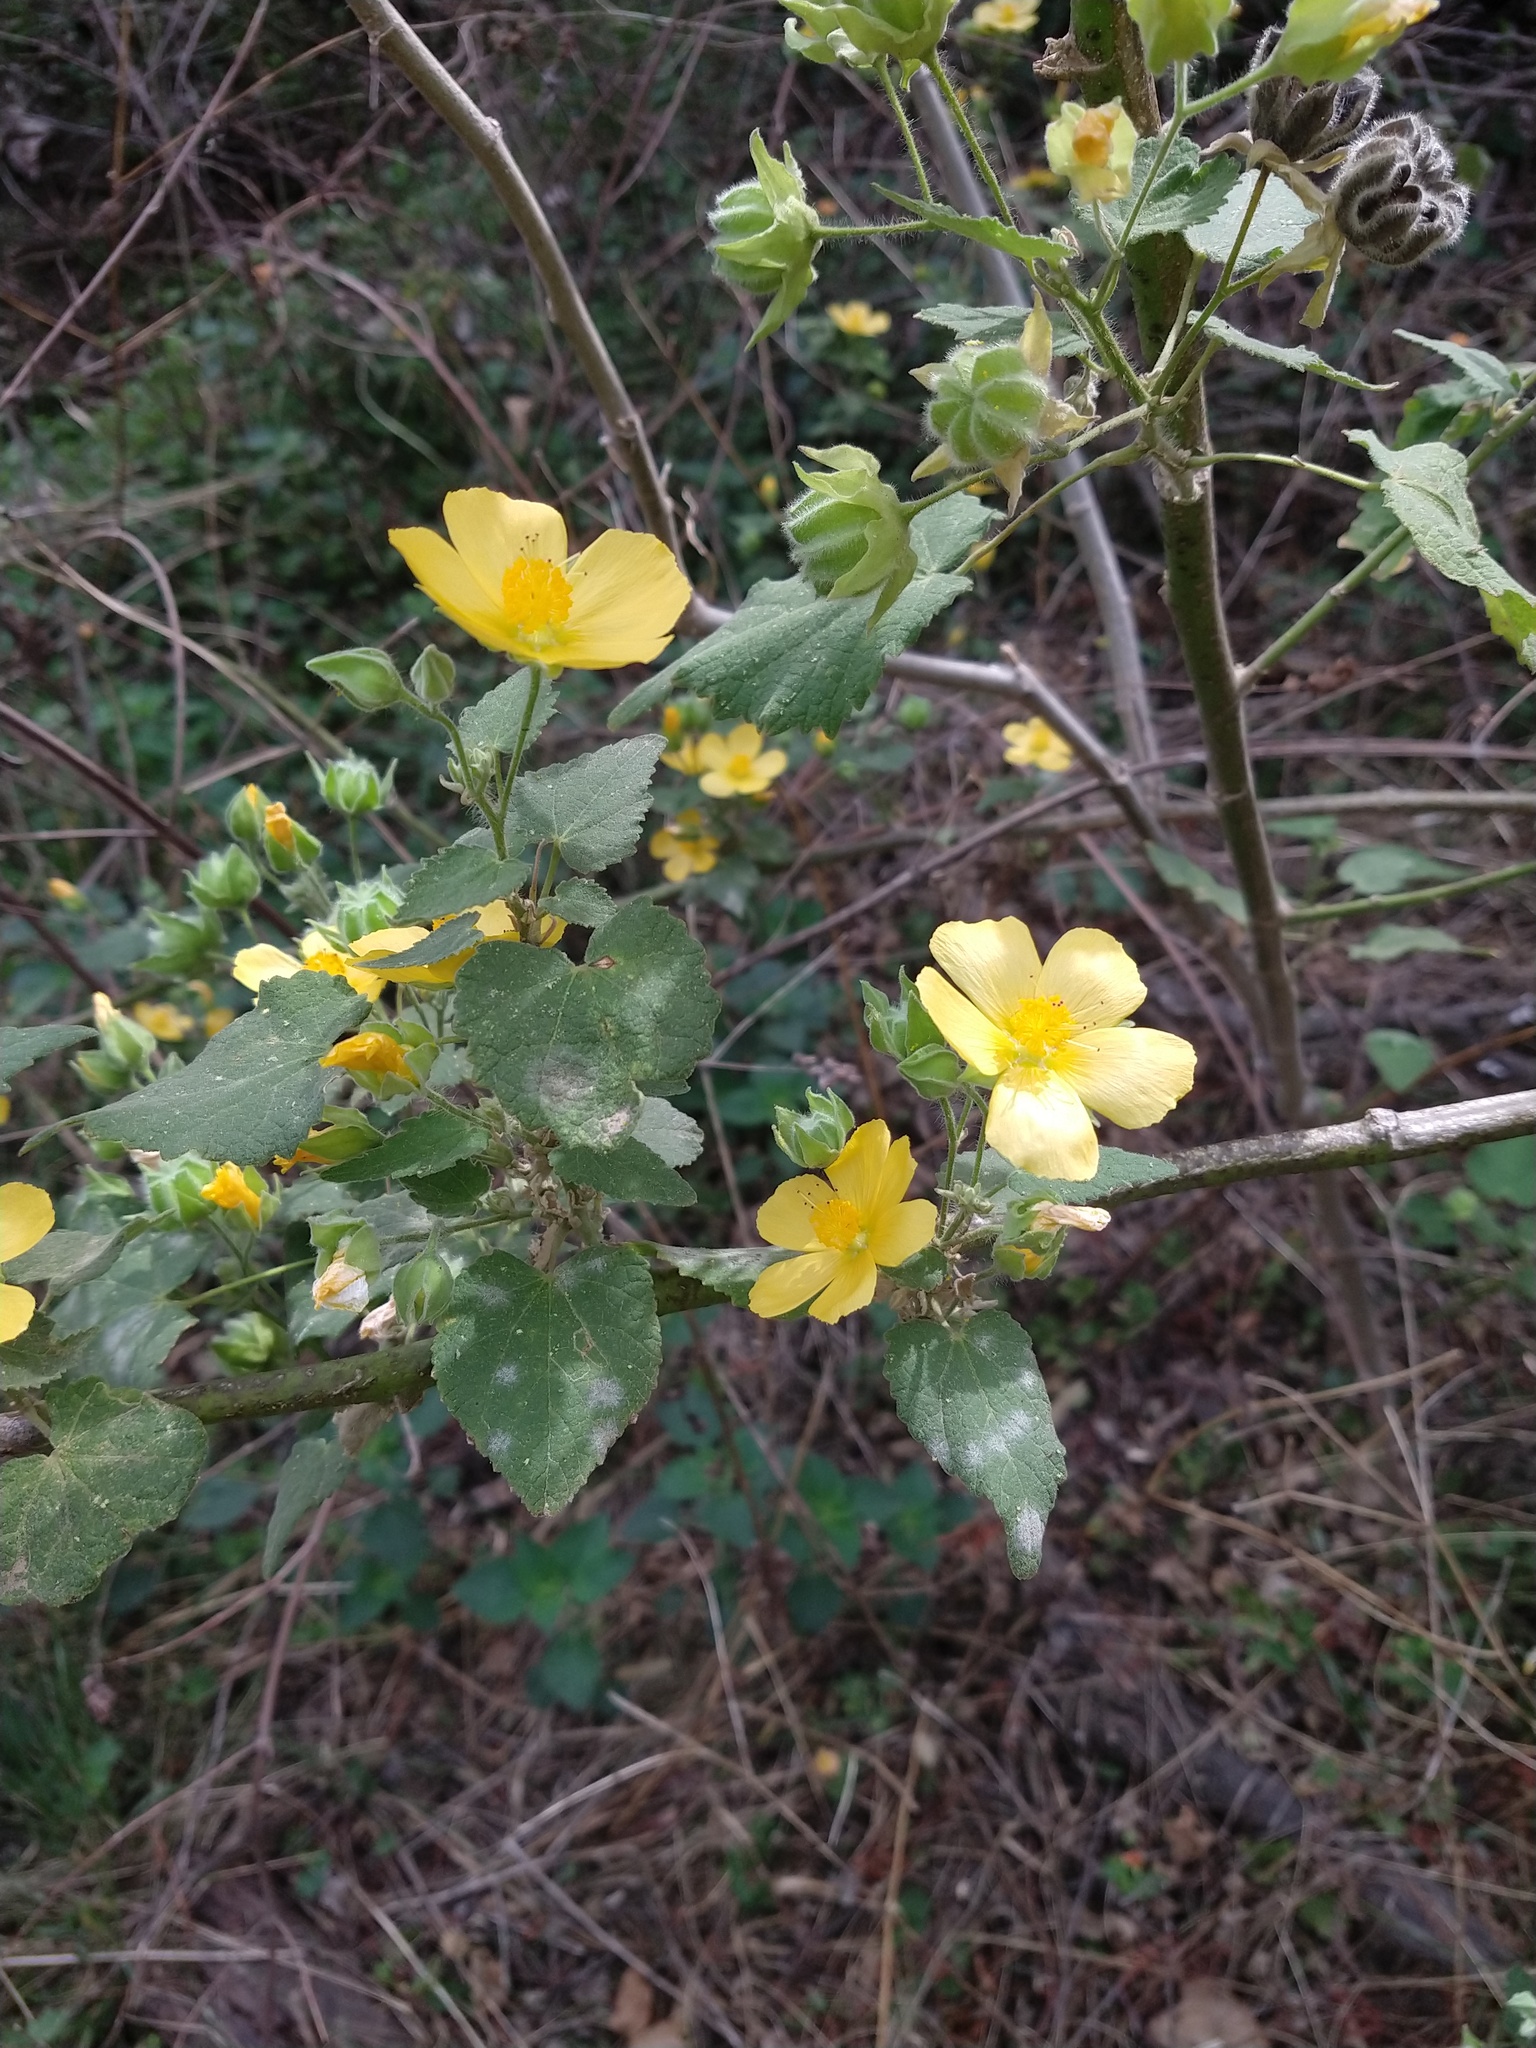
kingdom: Plantae
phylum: Tracheophyta
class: Magnoliopsida
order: Malvales
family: Malvaceae
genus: Abutilon
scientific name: Abutilon grandifolium
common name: Hairy abutilon
